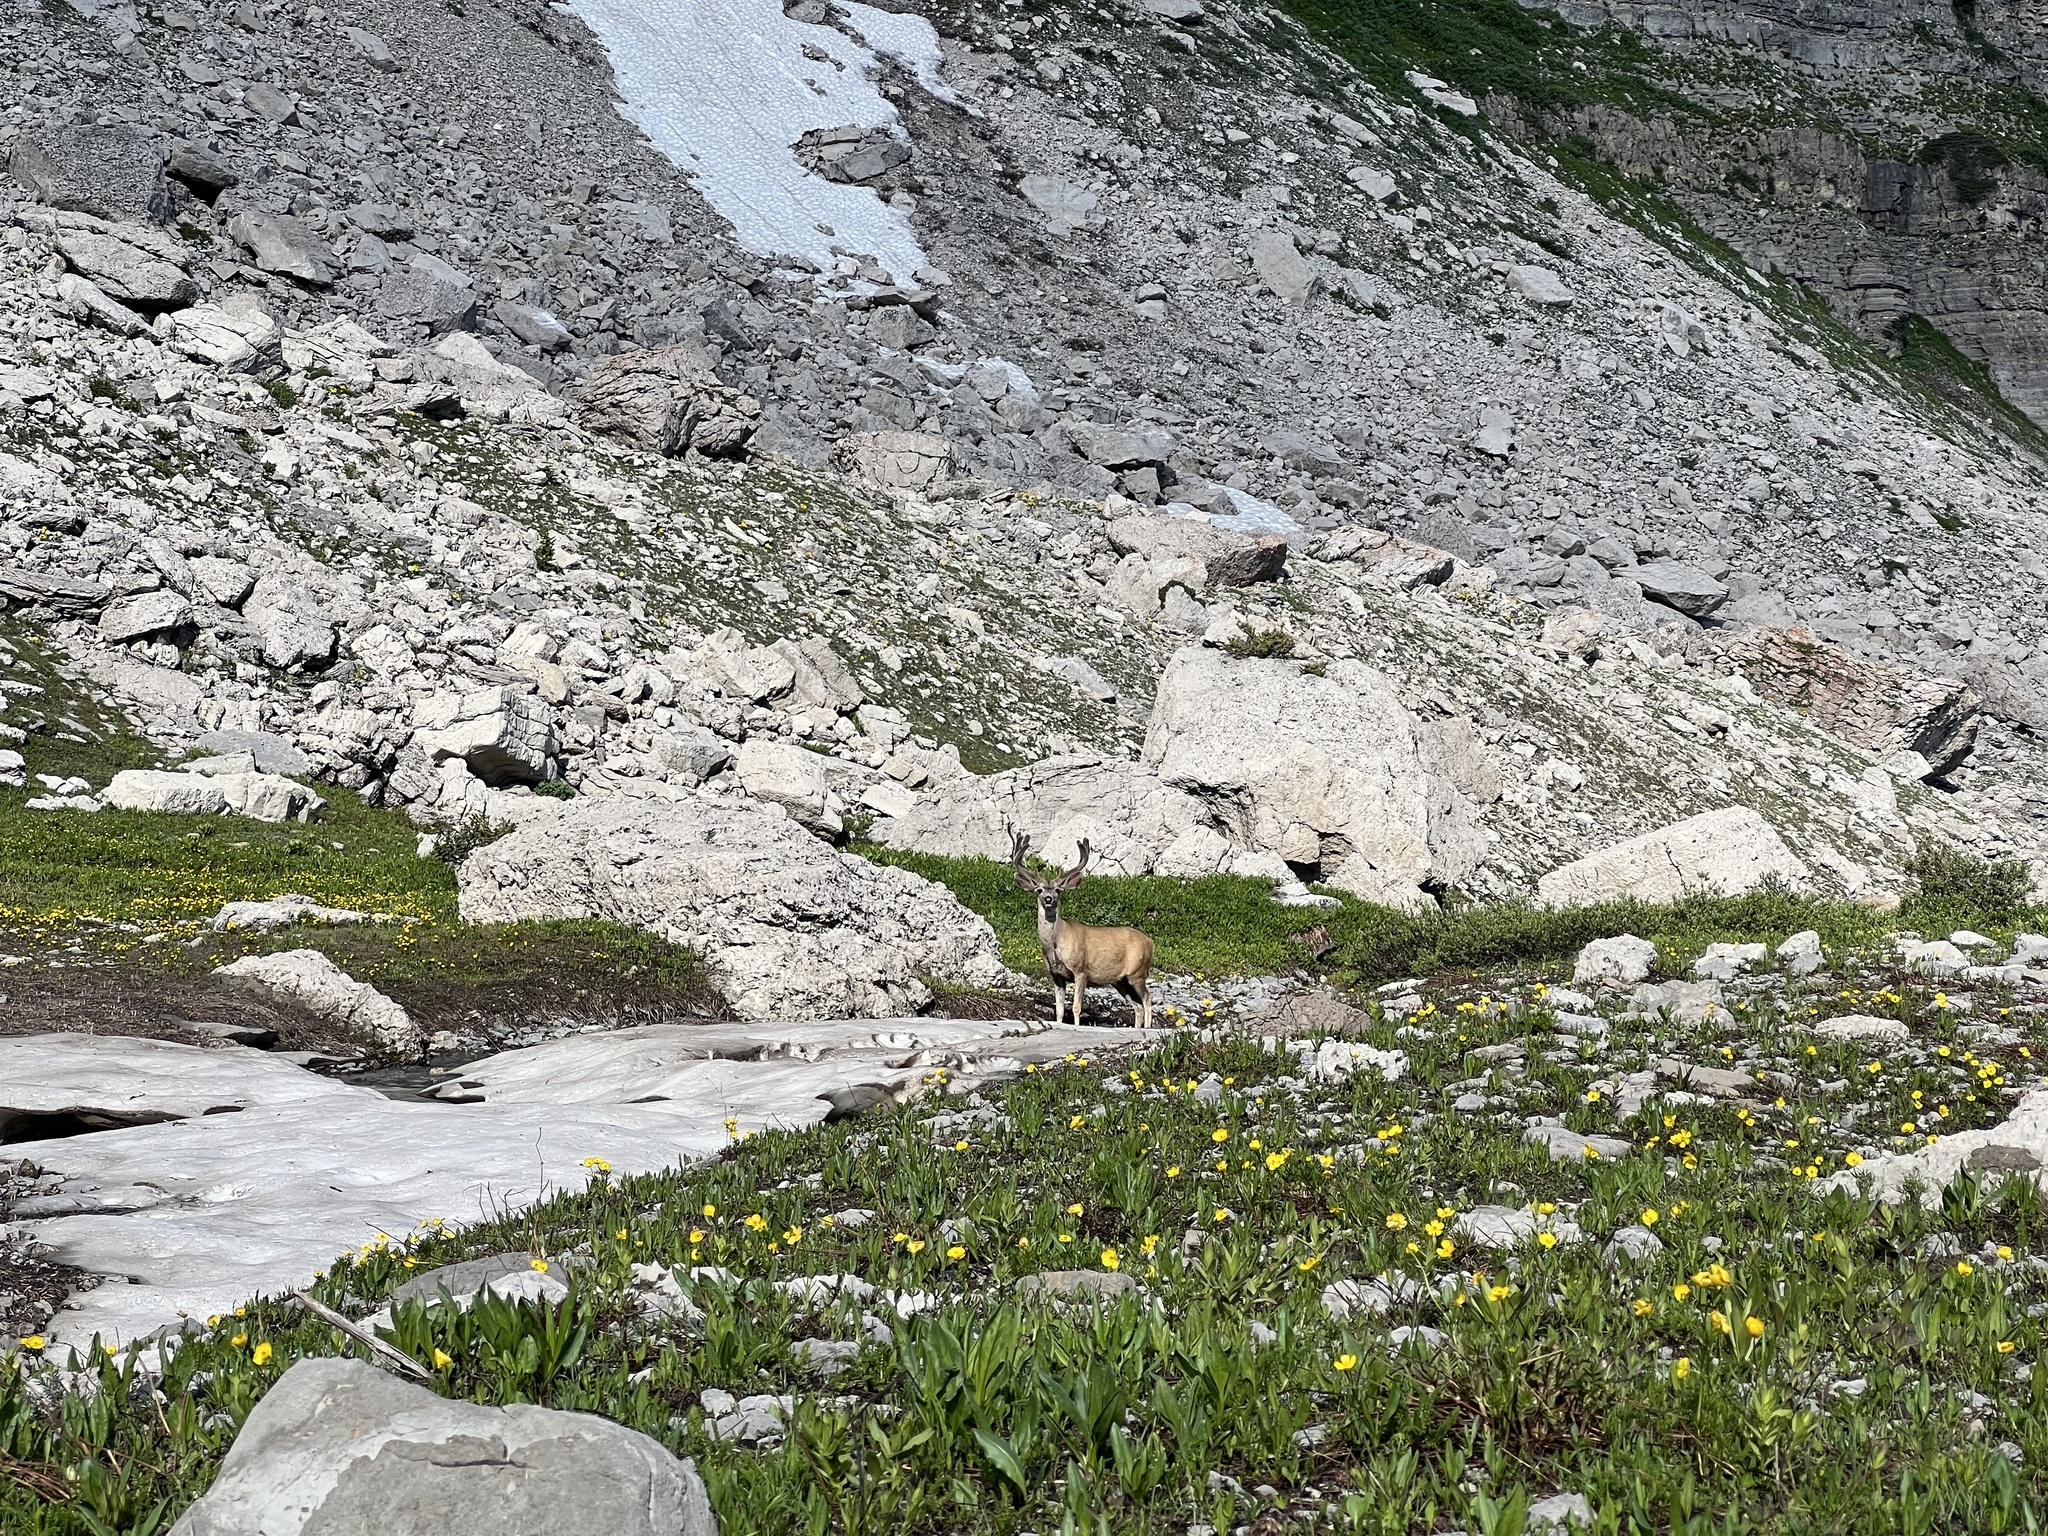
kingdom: Animalia
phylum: Chordata
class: Mammalia
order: Artiodactyla
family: Cervidae
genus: Odocoileus
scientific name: Odocoileus hemionus
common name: Mule deer
